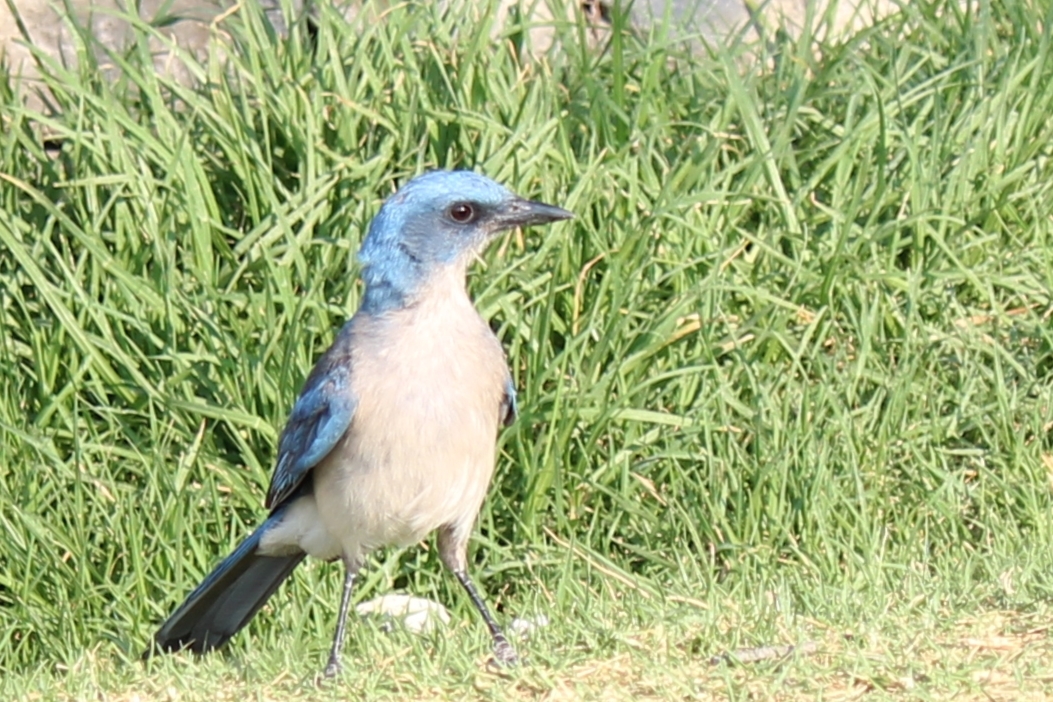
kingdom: Animalia
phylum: Chordata
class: Aves
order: Passeriformes
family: Corvidae
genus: Aphelocoma
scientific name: Aphelocoma wollweberi
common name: Mexican jay
